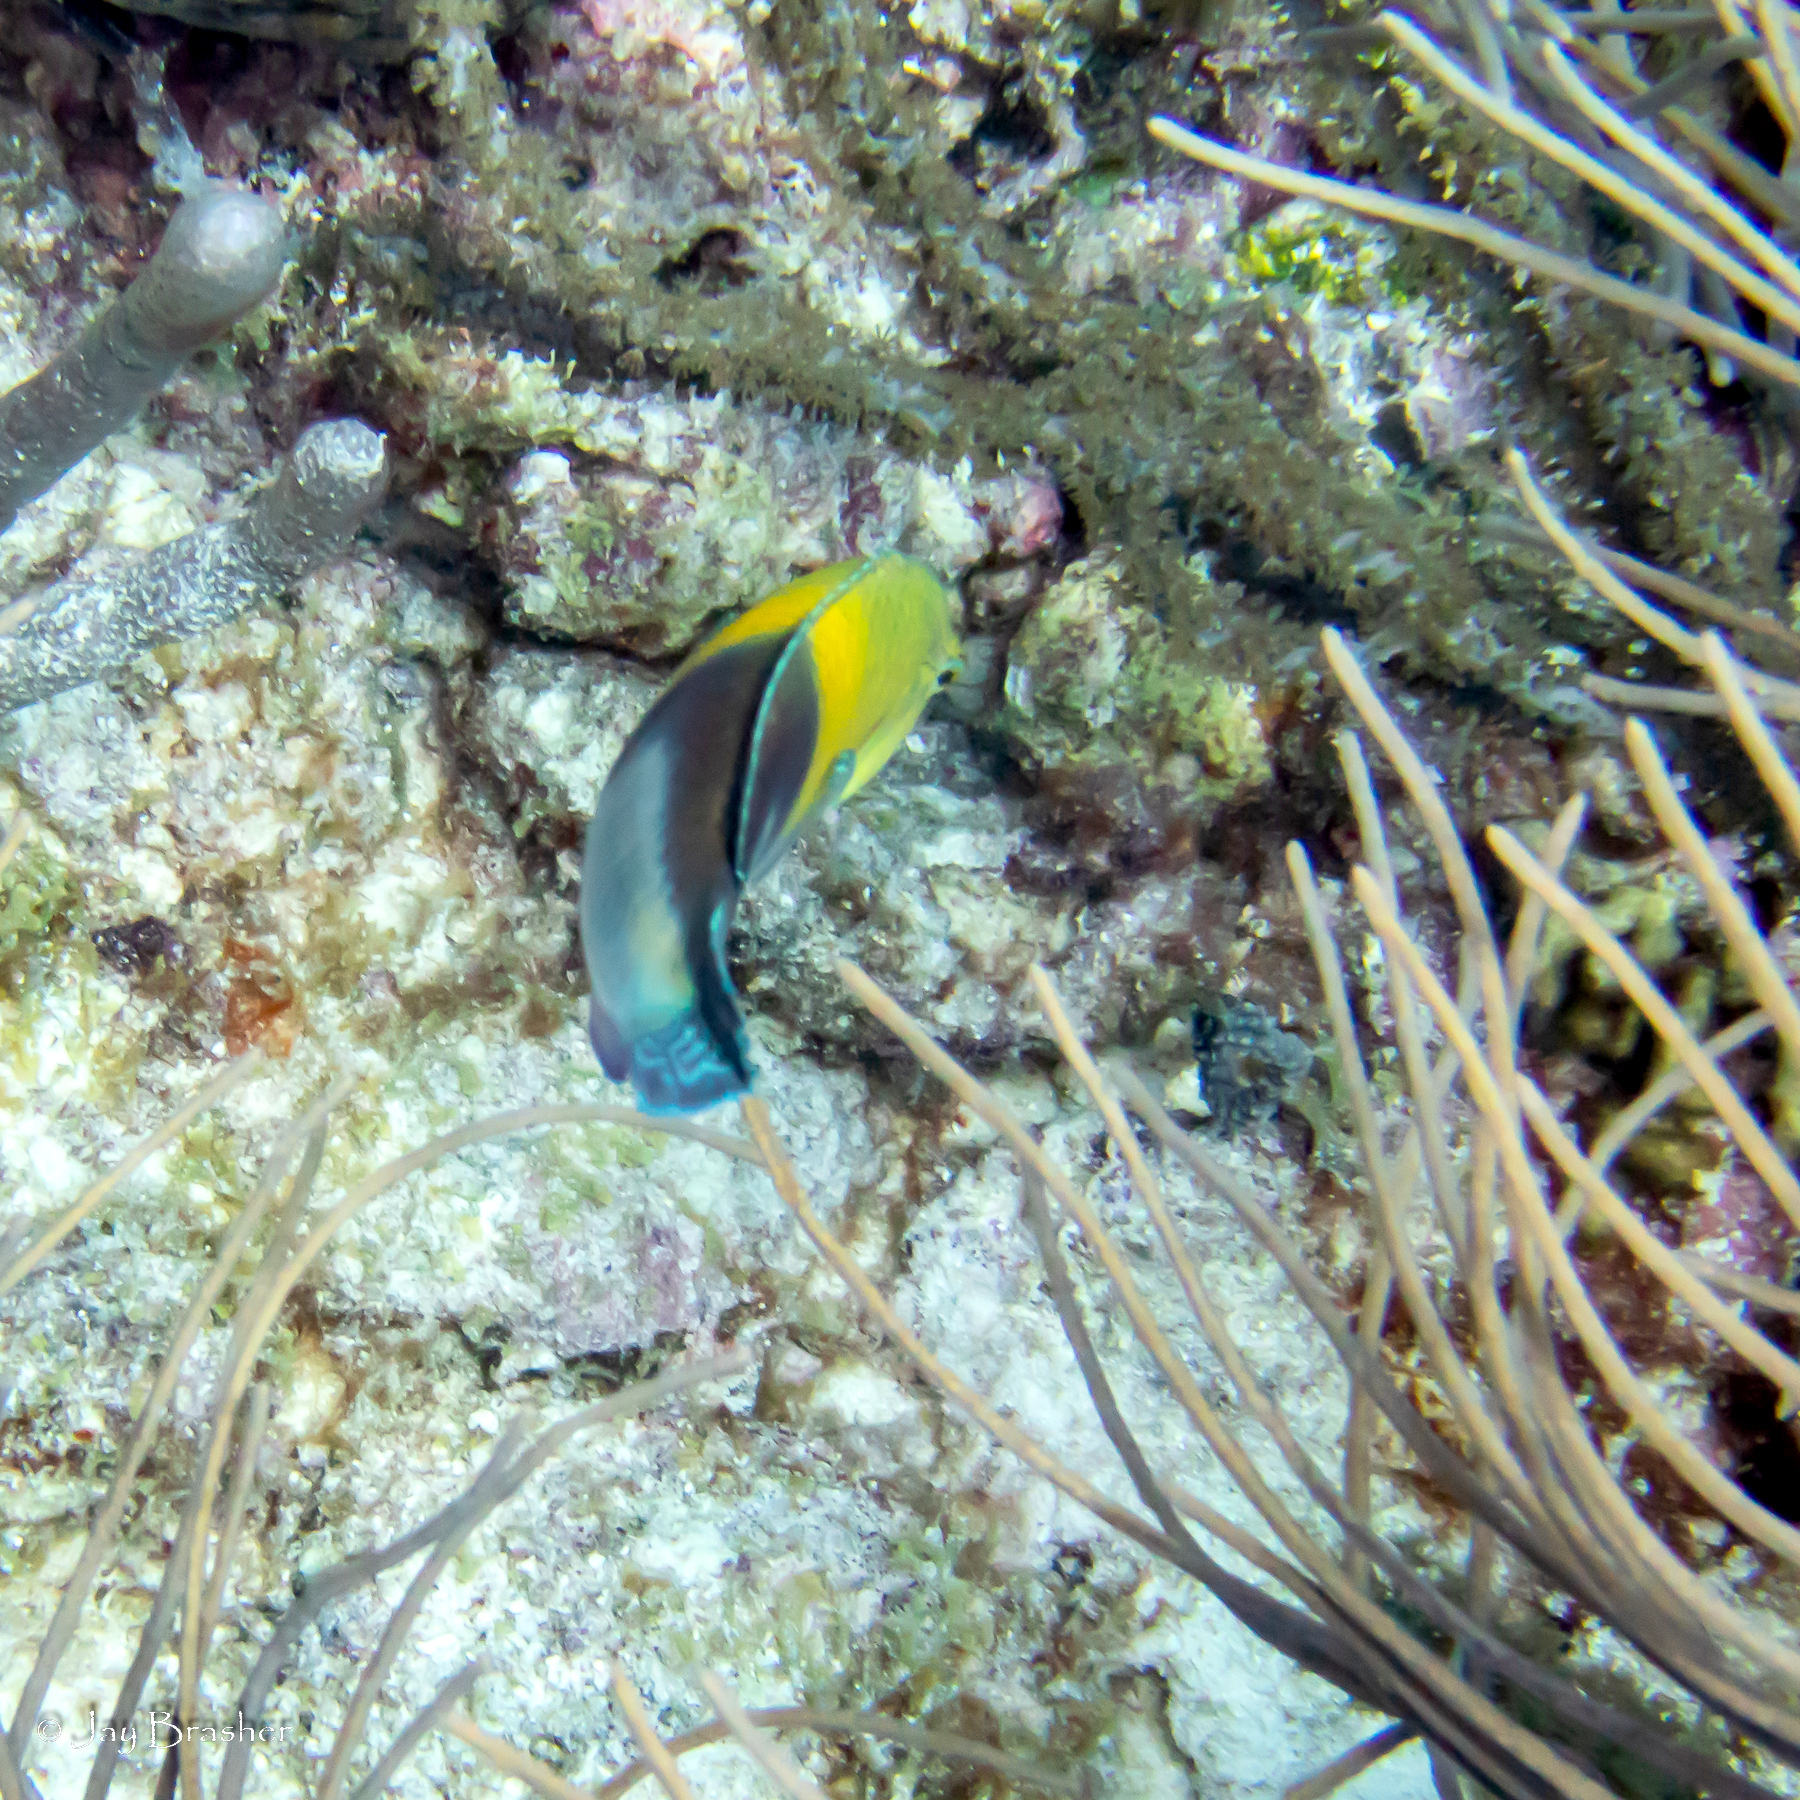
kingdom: Animalia
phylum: Chordata
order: Perciformes
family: Labridae
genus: Halichoeres
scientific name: Halichoeres garnoti
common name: Yellowhead wrasse
